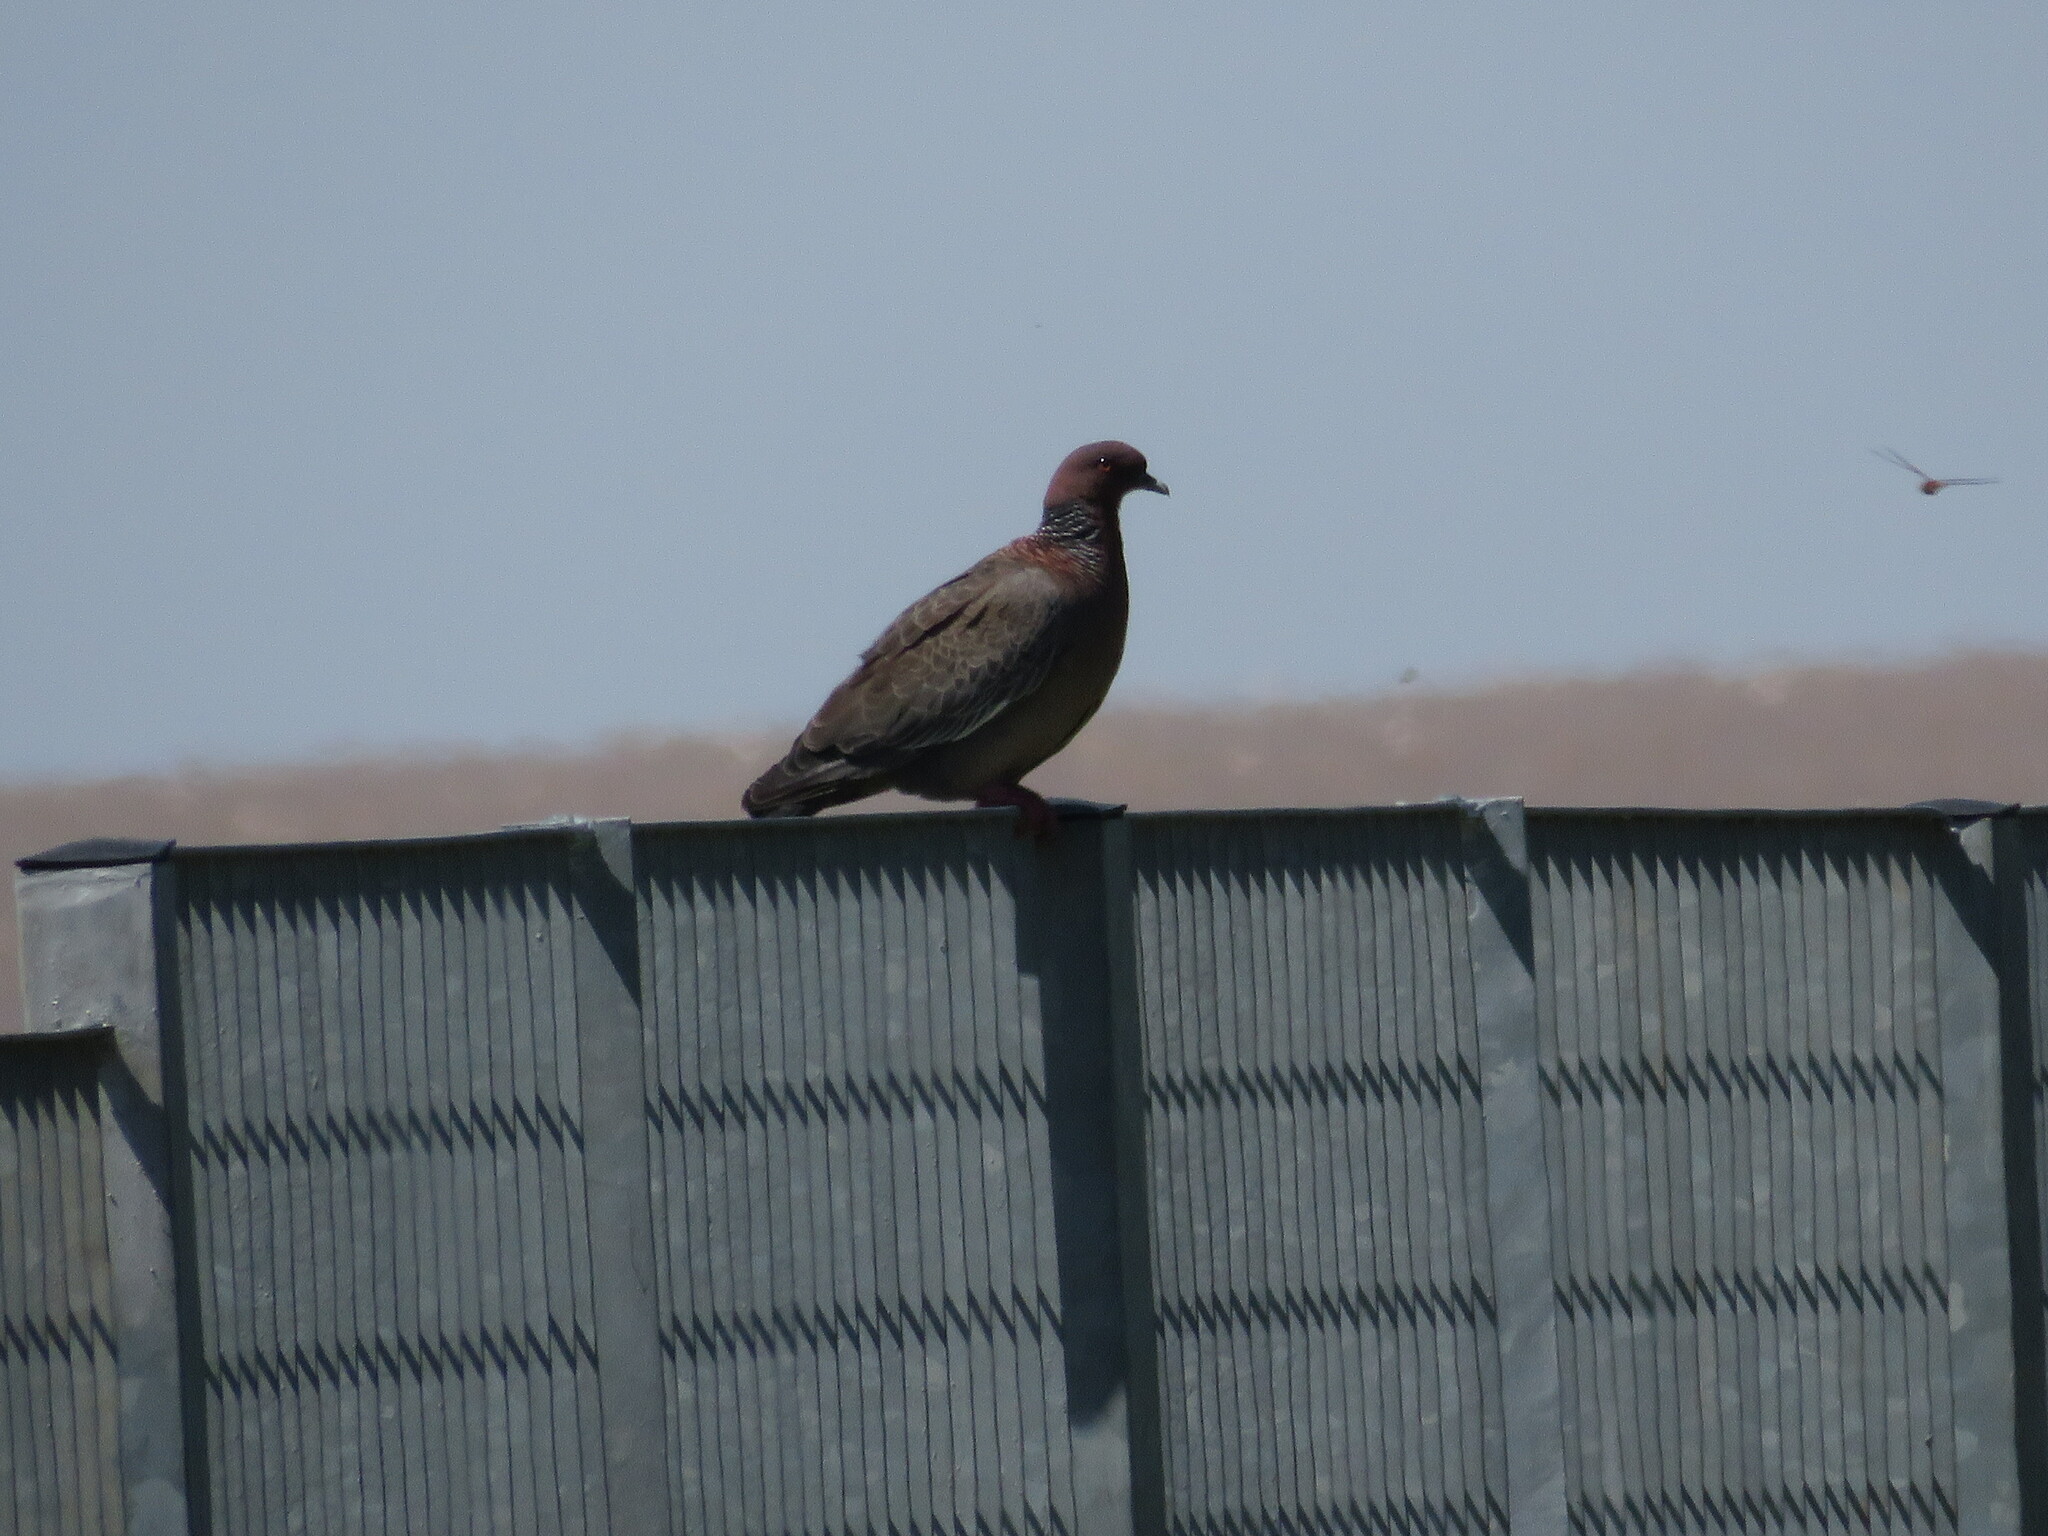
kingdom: Animalia
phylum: Chordata
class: Aves
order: Columbiformes
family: Columbidae
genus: Patagioenas
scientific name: Patagioenas picazuro
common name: Picazuro pigeon
